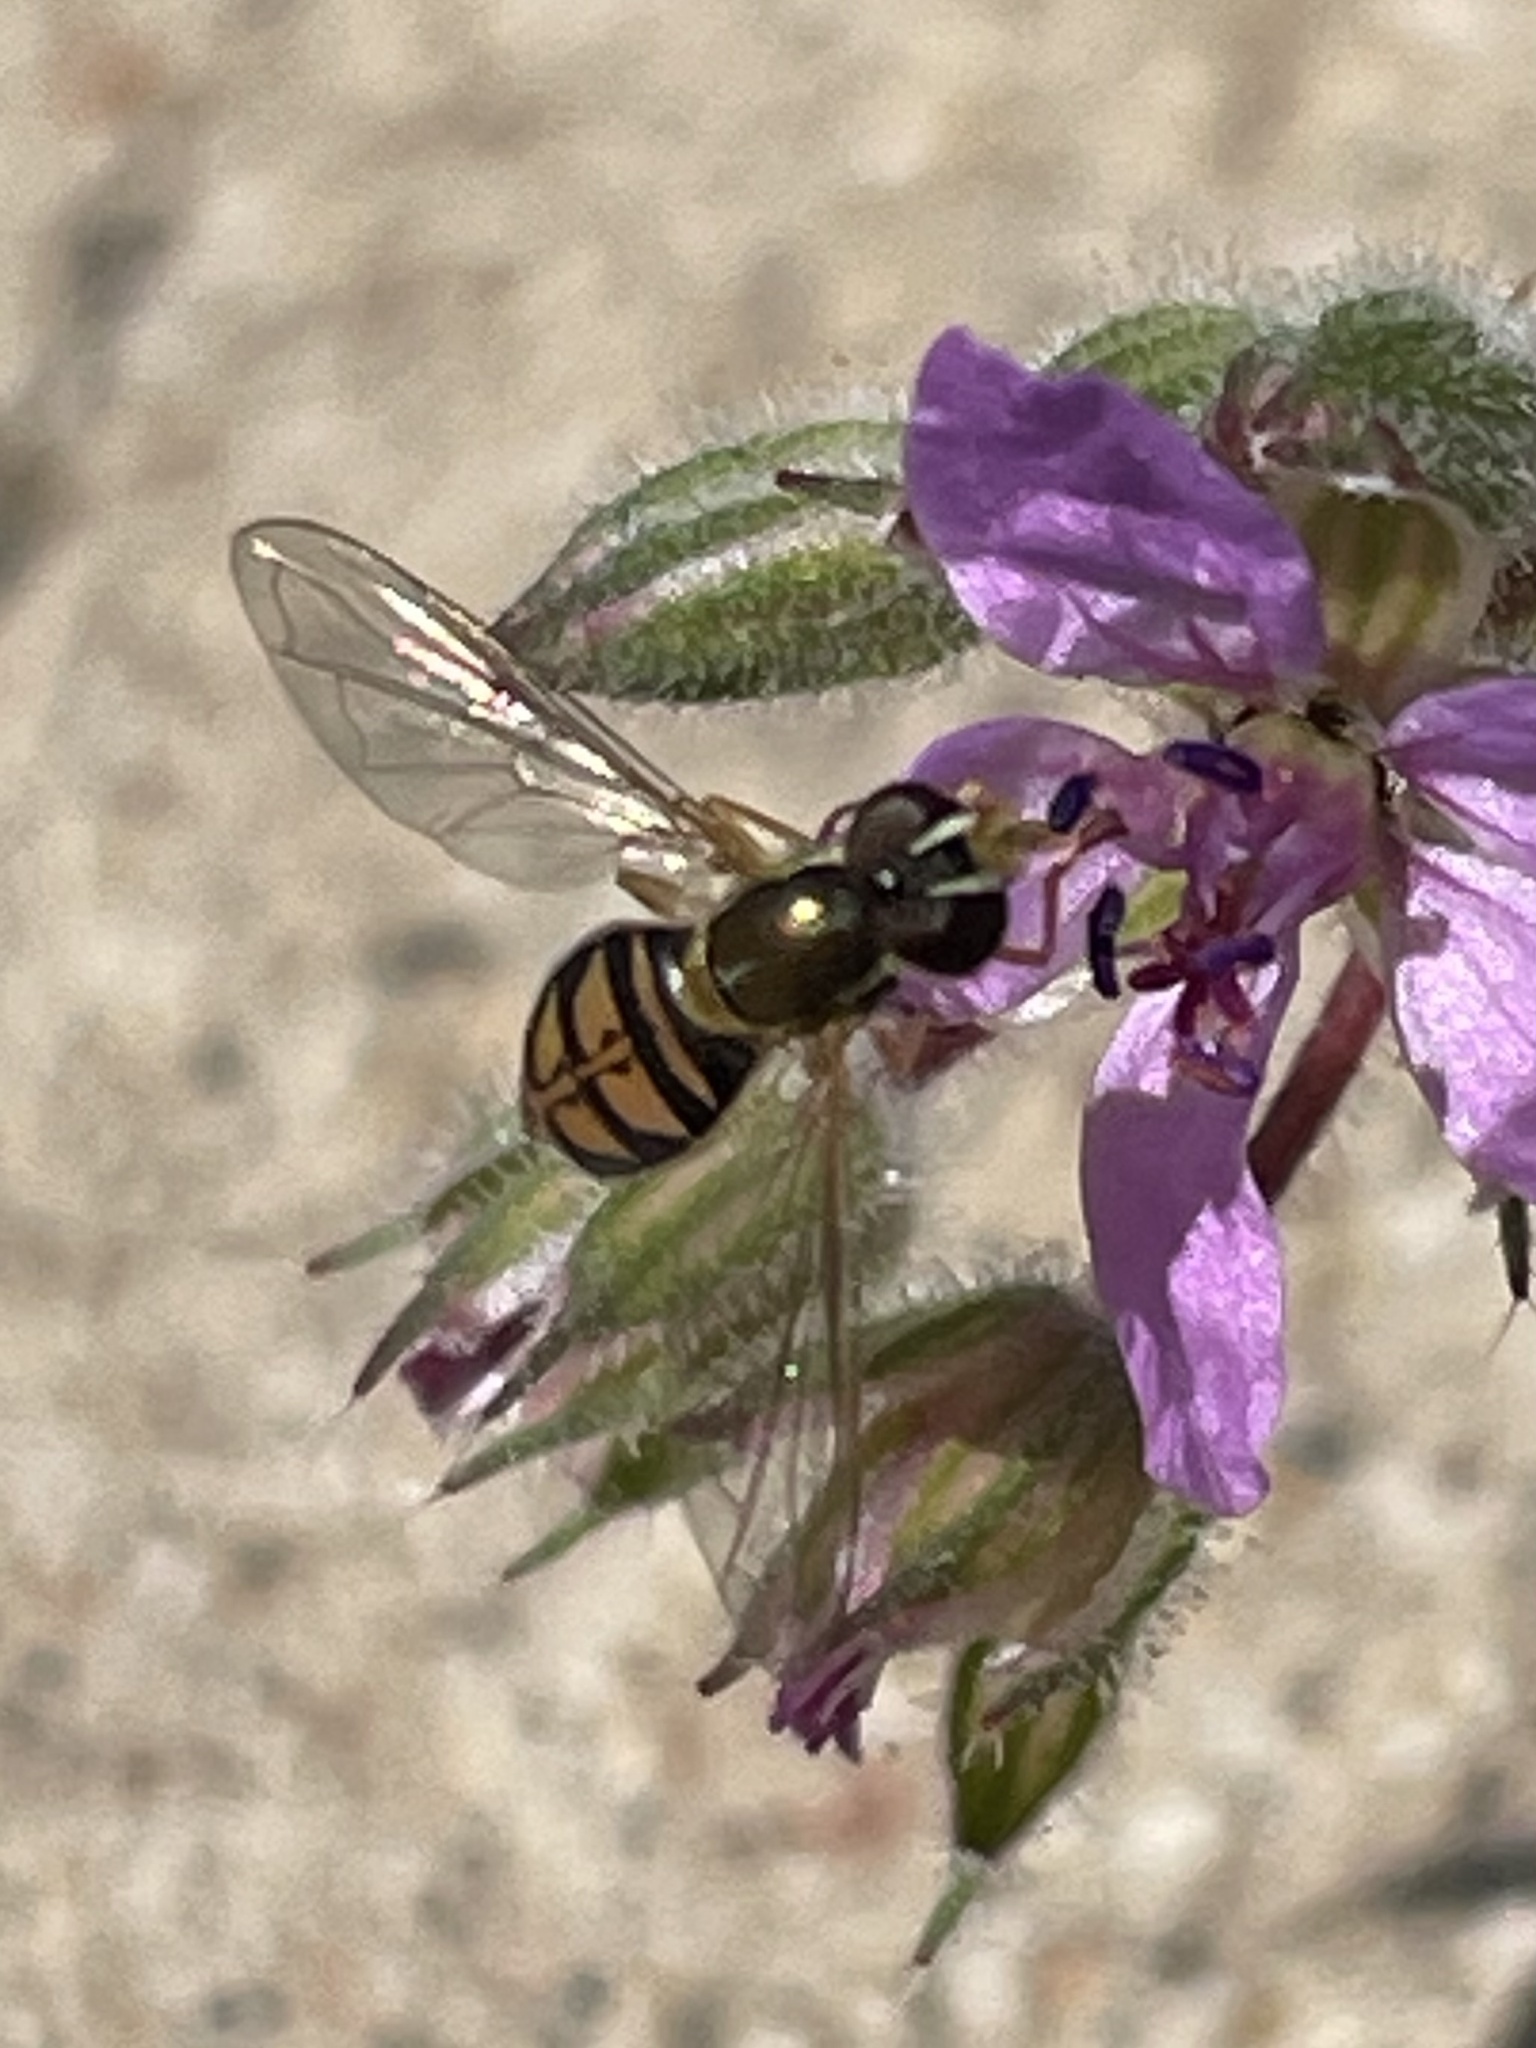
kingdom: Animalia
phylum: Arthropoda
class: Insecta
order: Diptera
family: Syrphidae
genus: Toxomerus
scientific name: Toxomerus marginatus
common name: Syrphid fly
